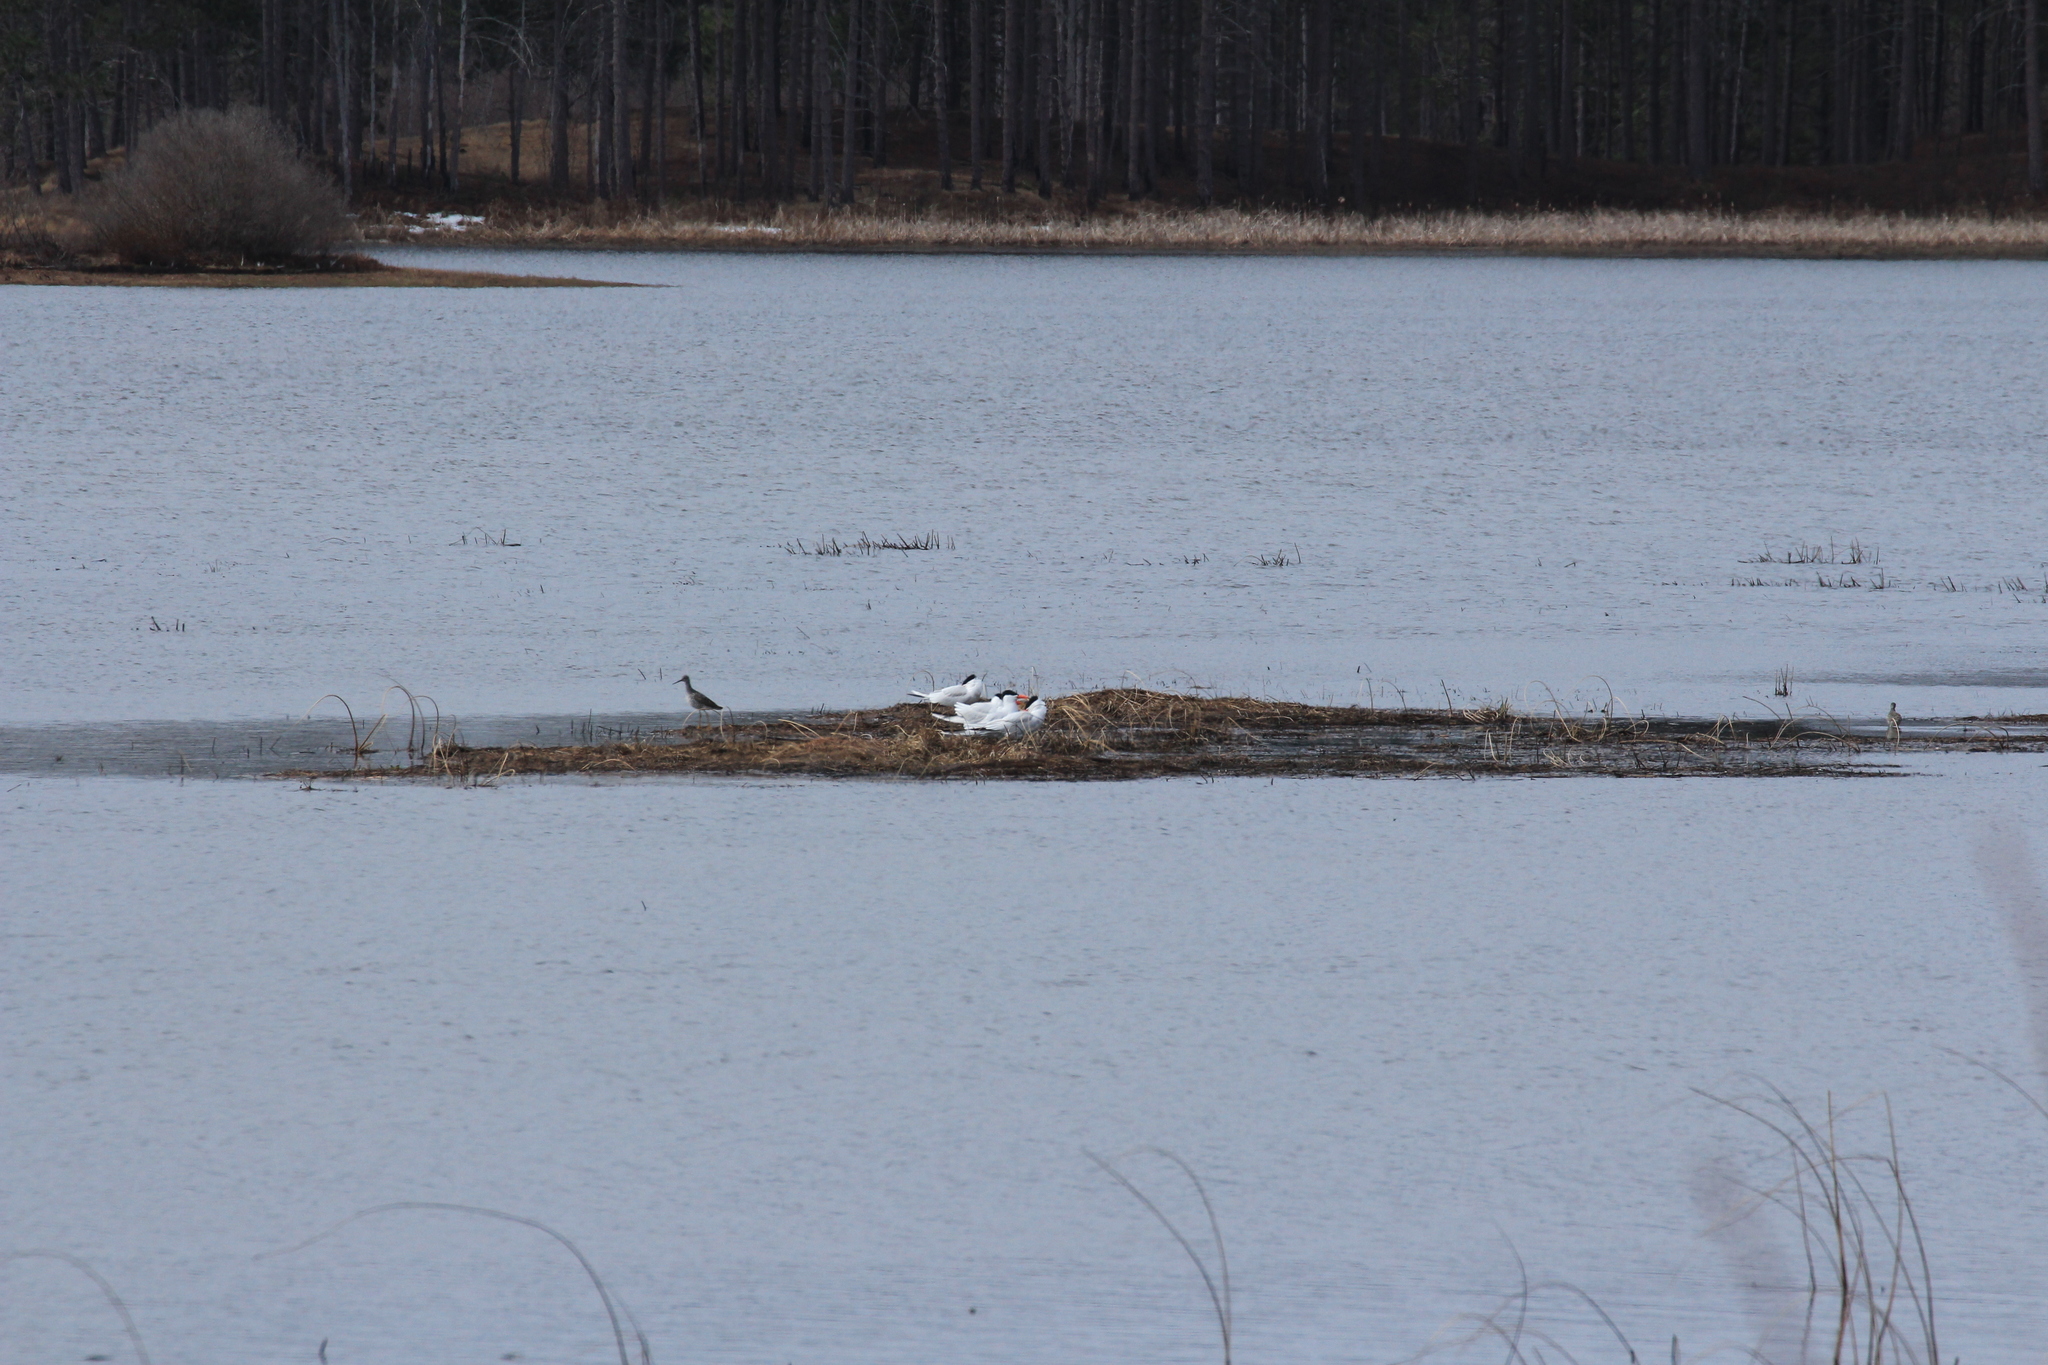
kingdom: Animalia
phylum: Chordata
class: Aves
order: Charadriiformes
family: Scolopacidae
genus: Tringa
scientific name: Tringa melanoleuca
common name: Greater yellowlegs
